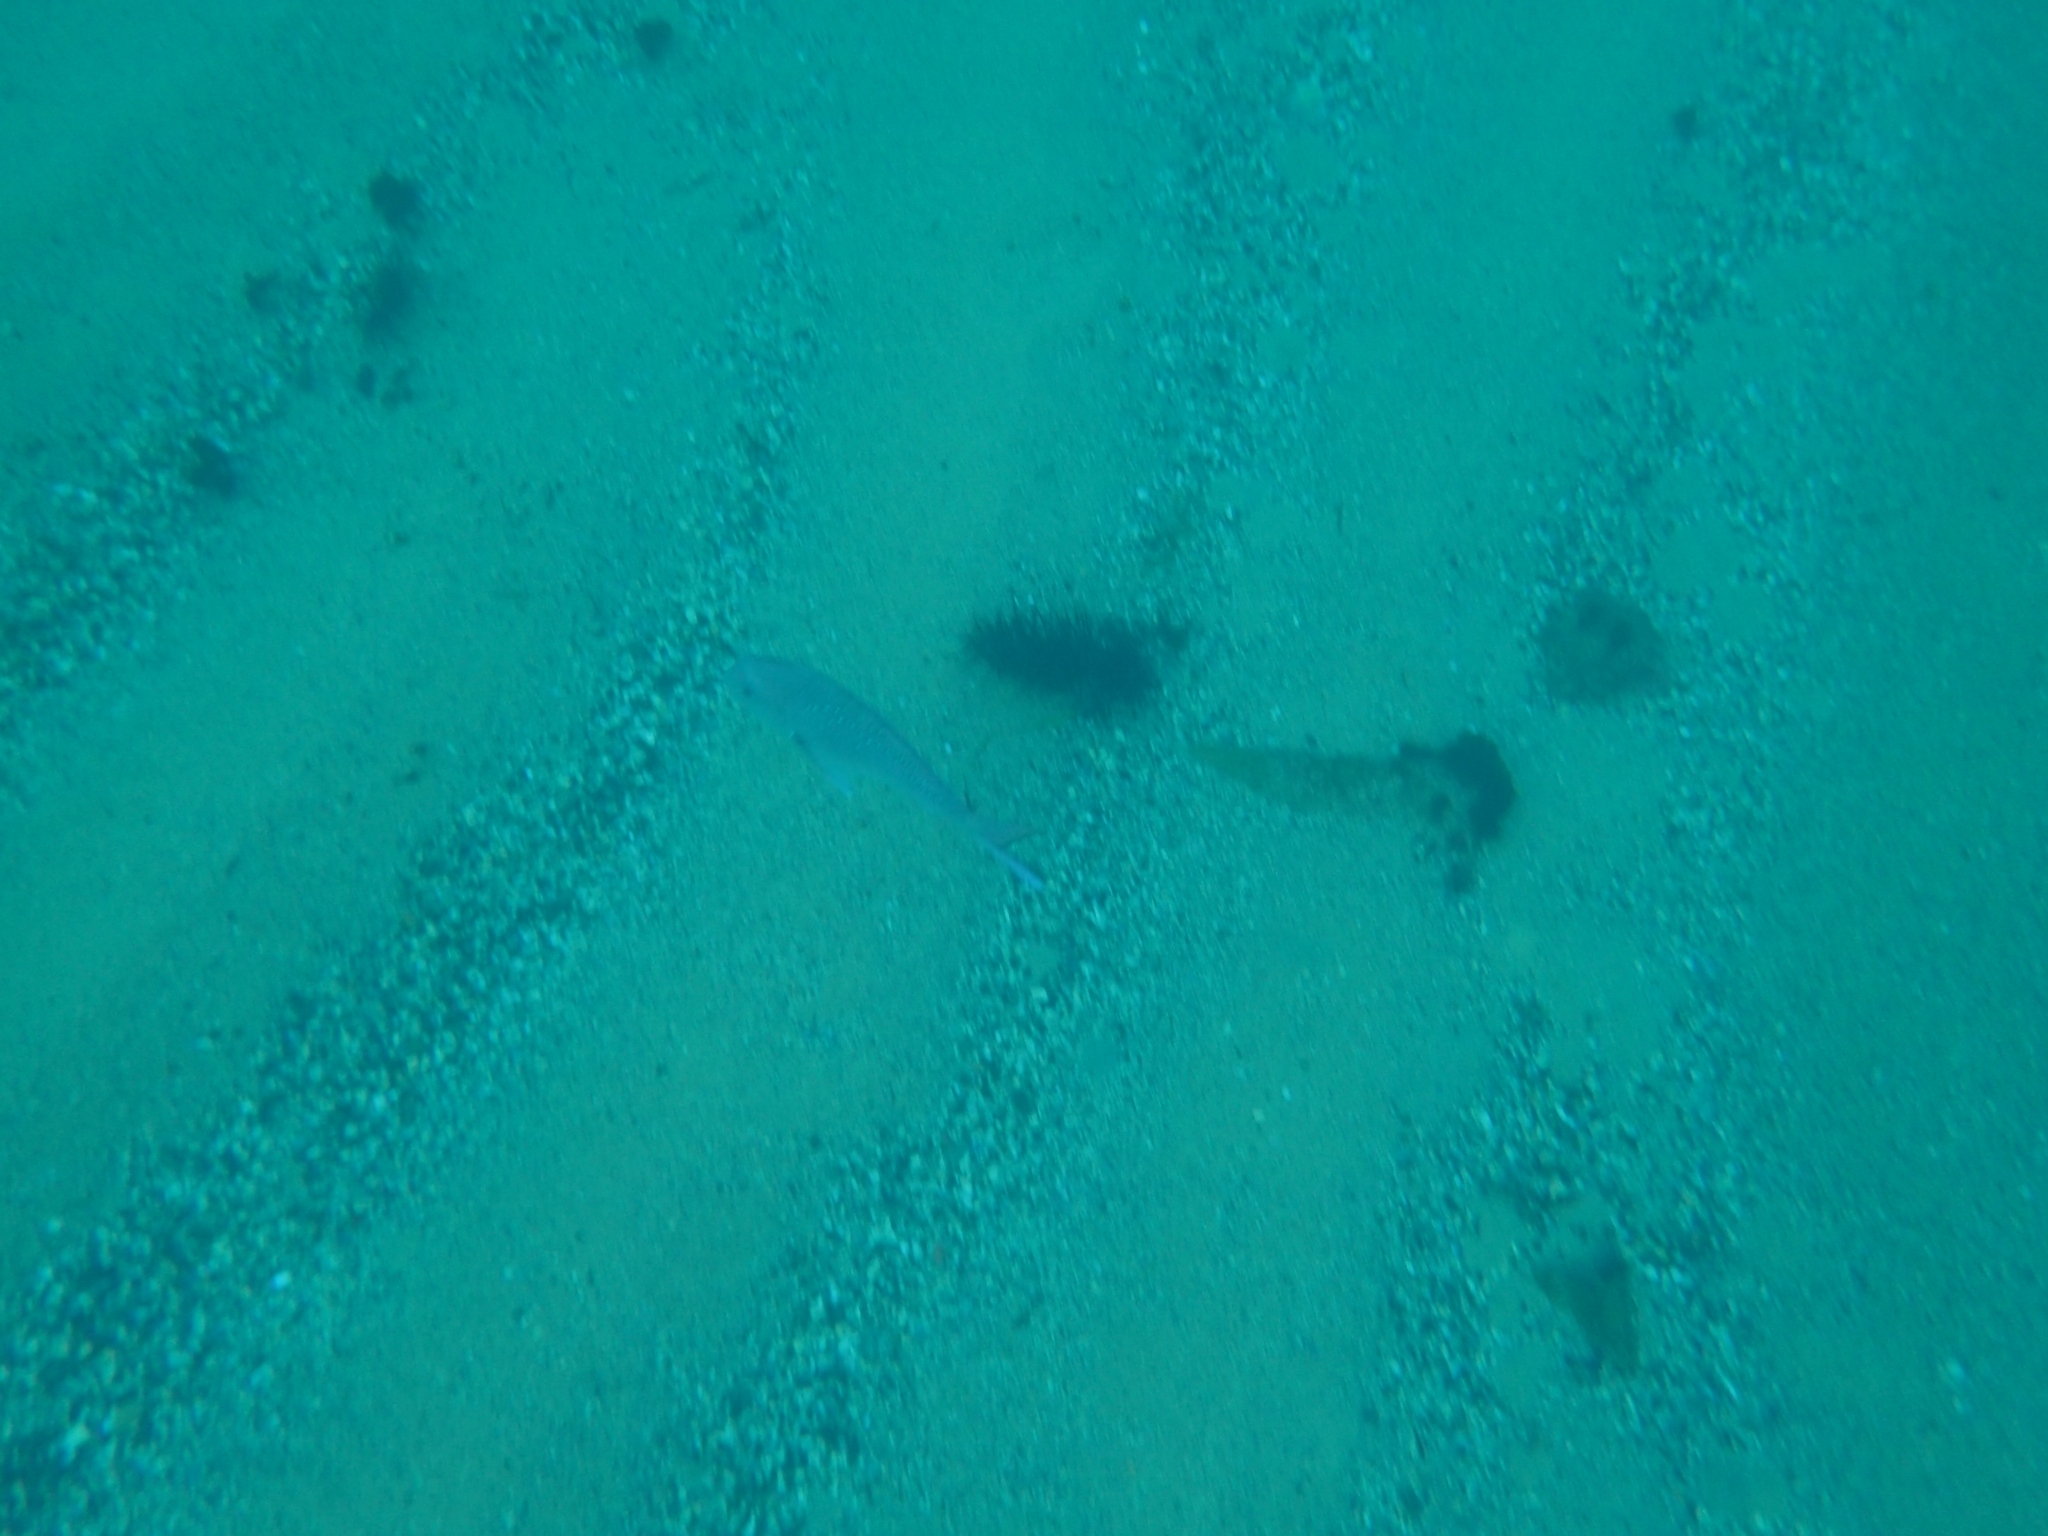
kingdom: Animalia
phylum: Chordata
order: Perciformes
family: Sparidae
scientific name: Sparidae
